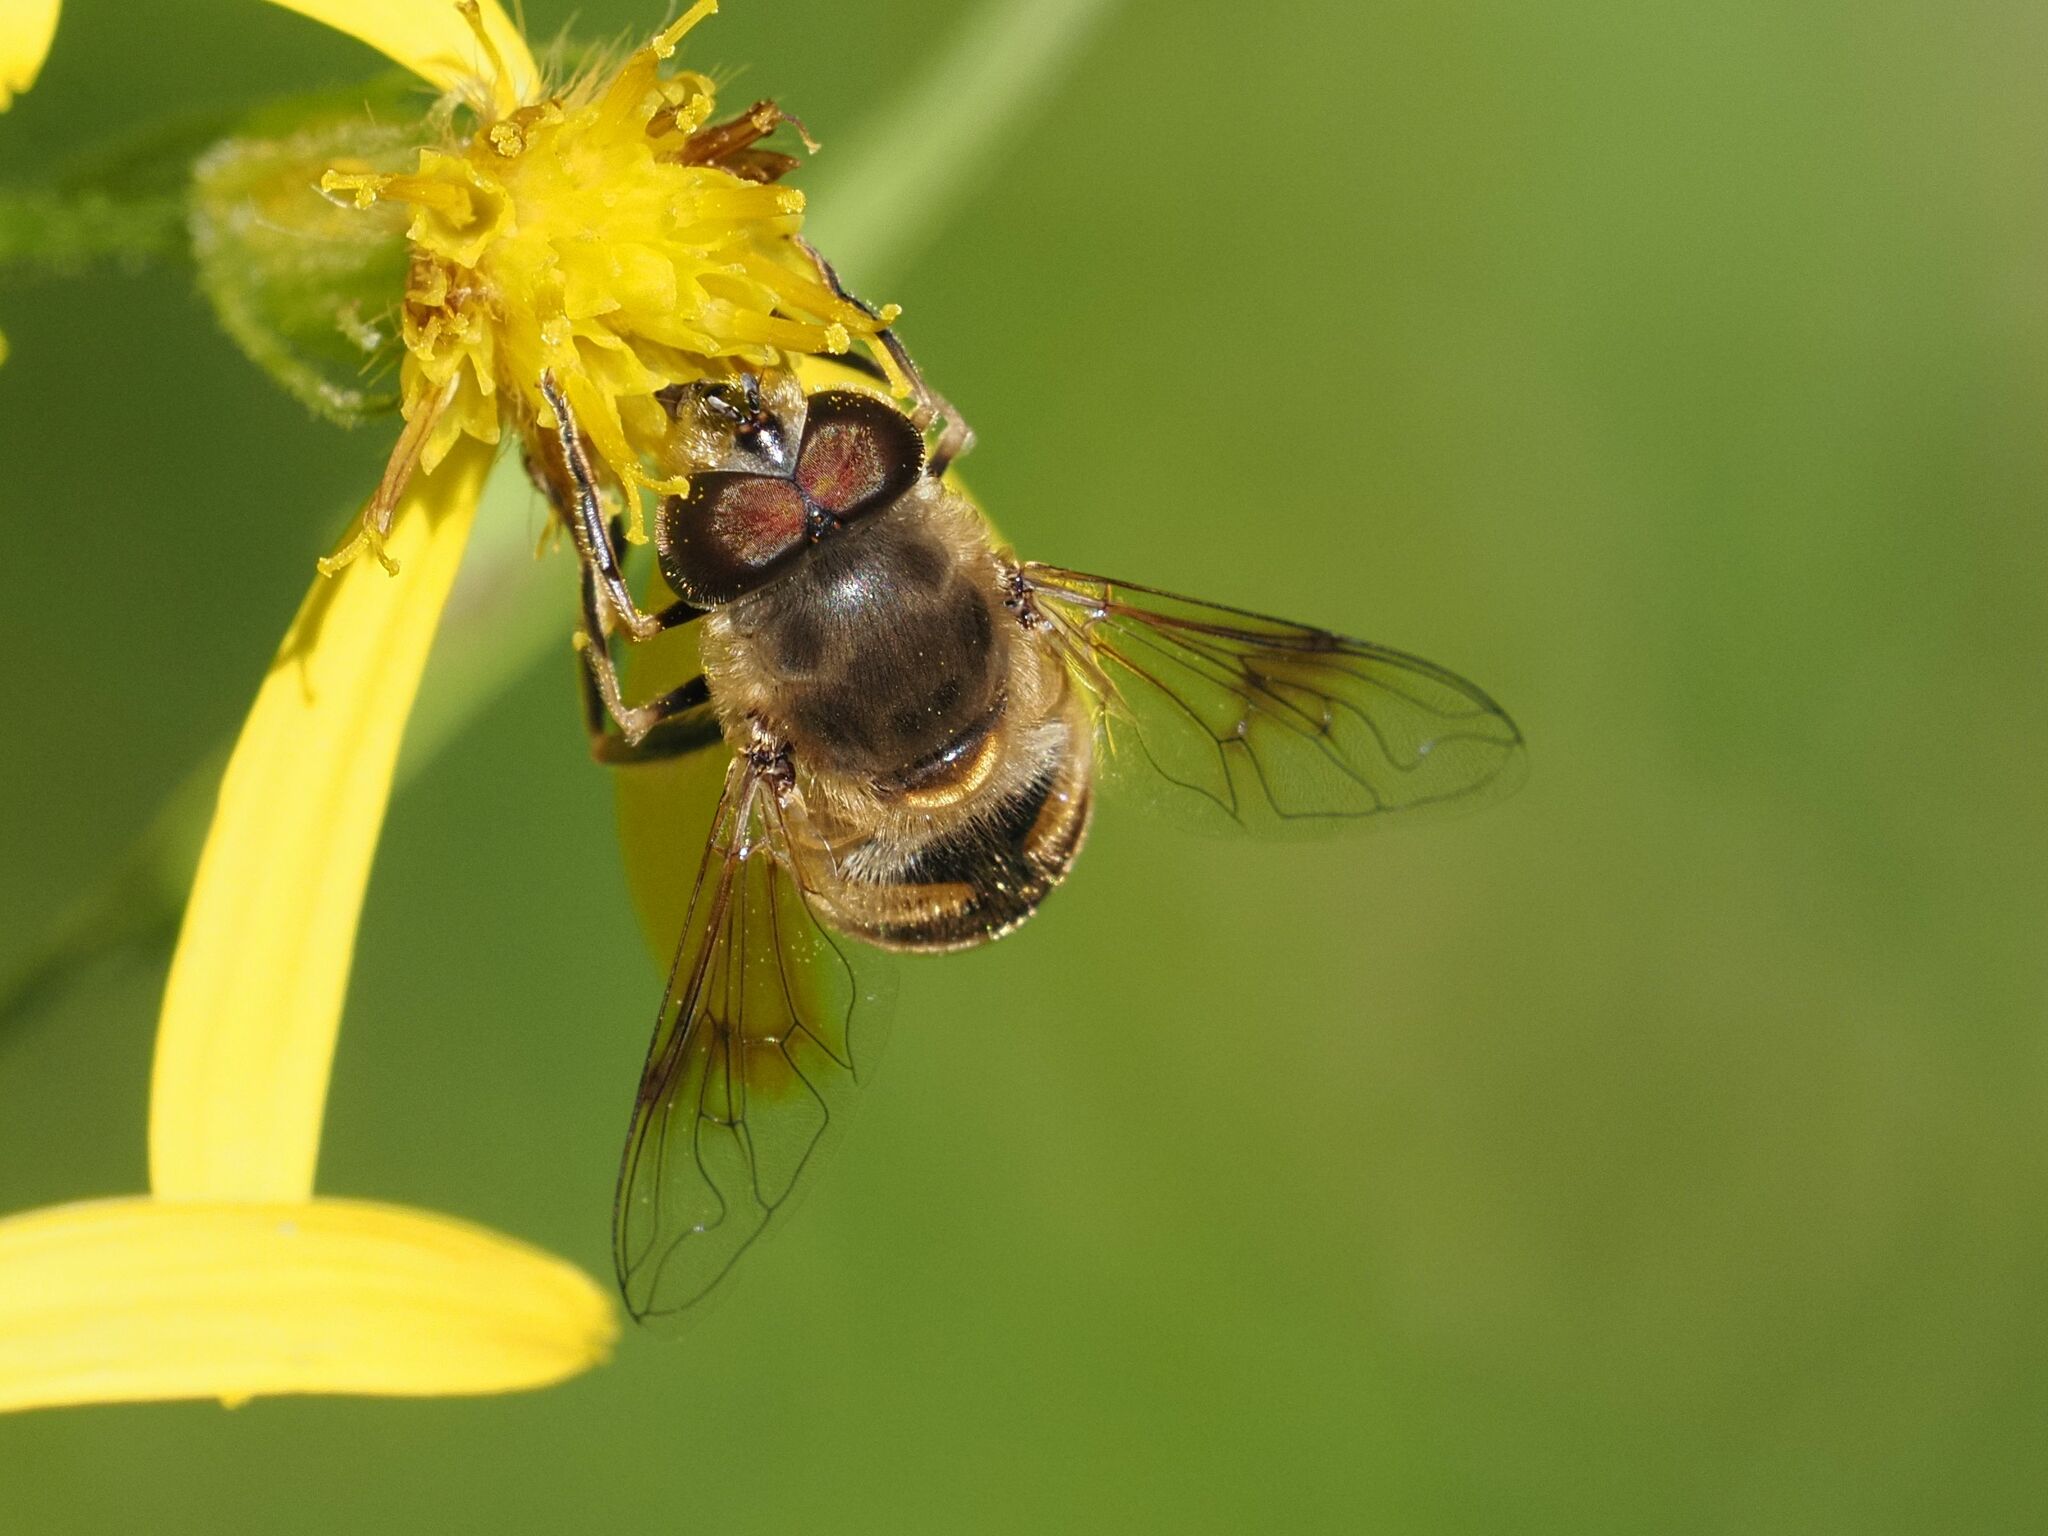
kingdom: Animalia
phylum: Arthropoda
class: Insecta
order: Diptera
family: Syrphidae
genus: Eristalis
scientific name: Eristalis tenax
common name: Drone fly
